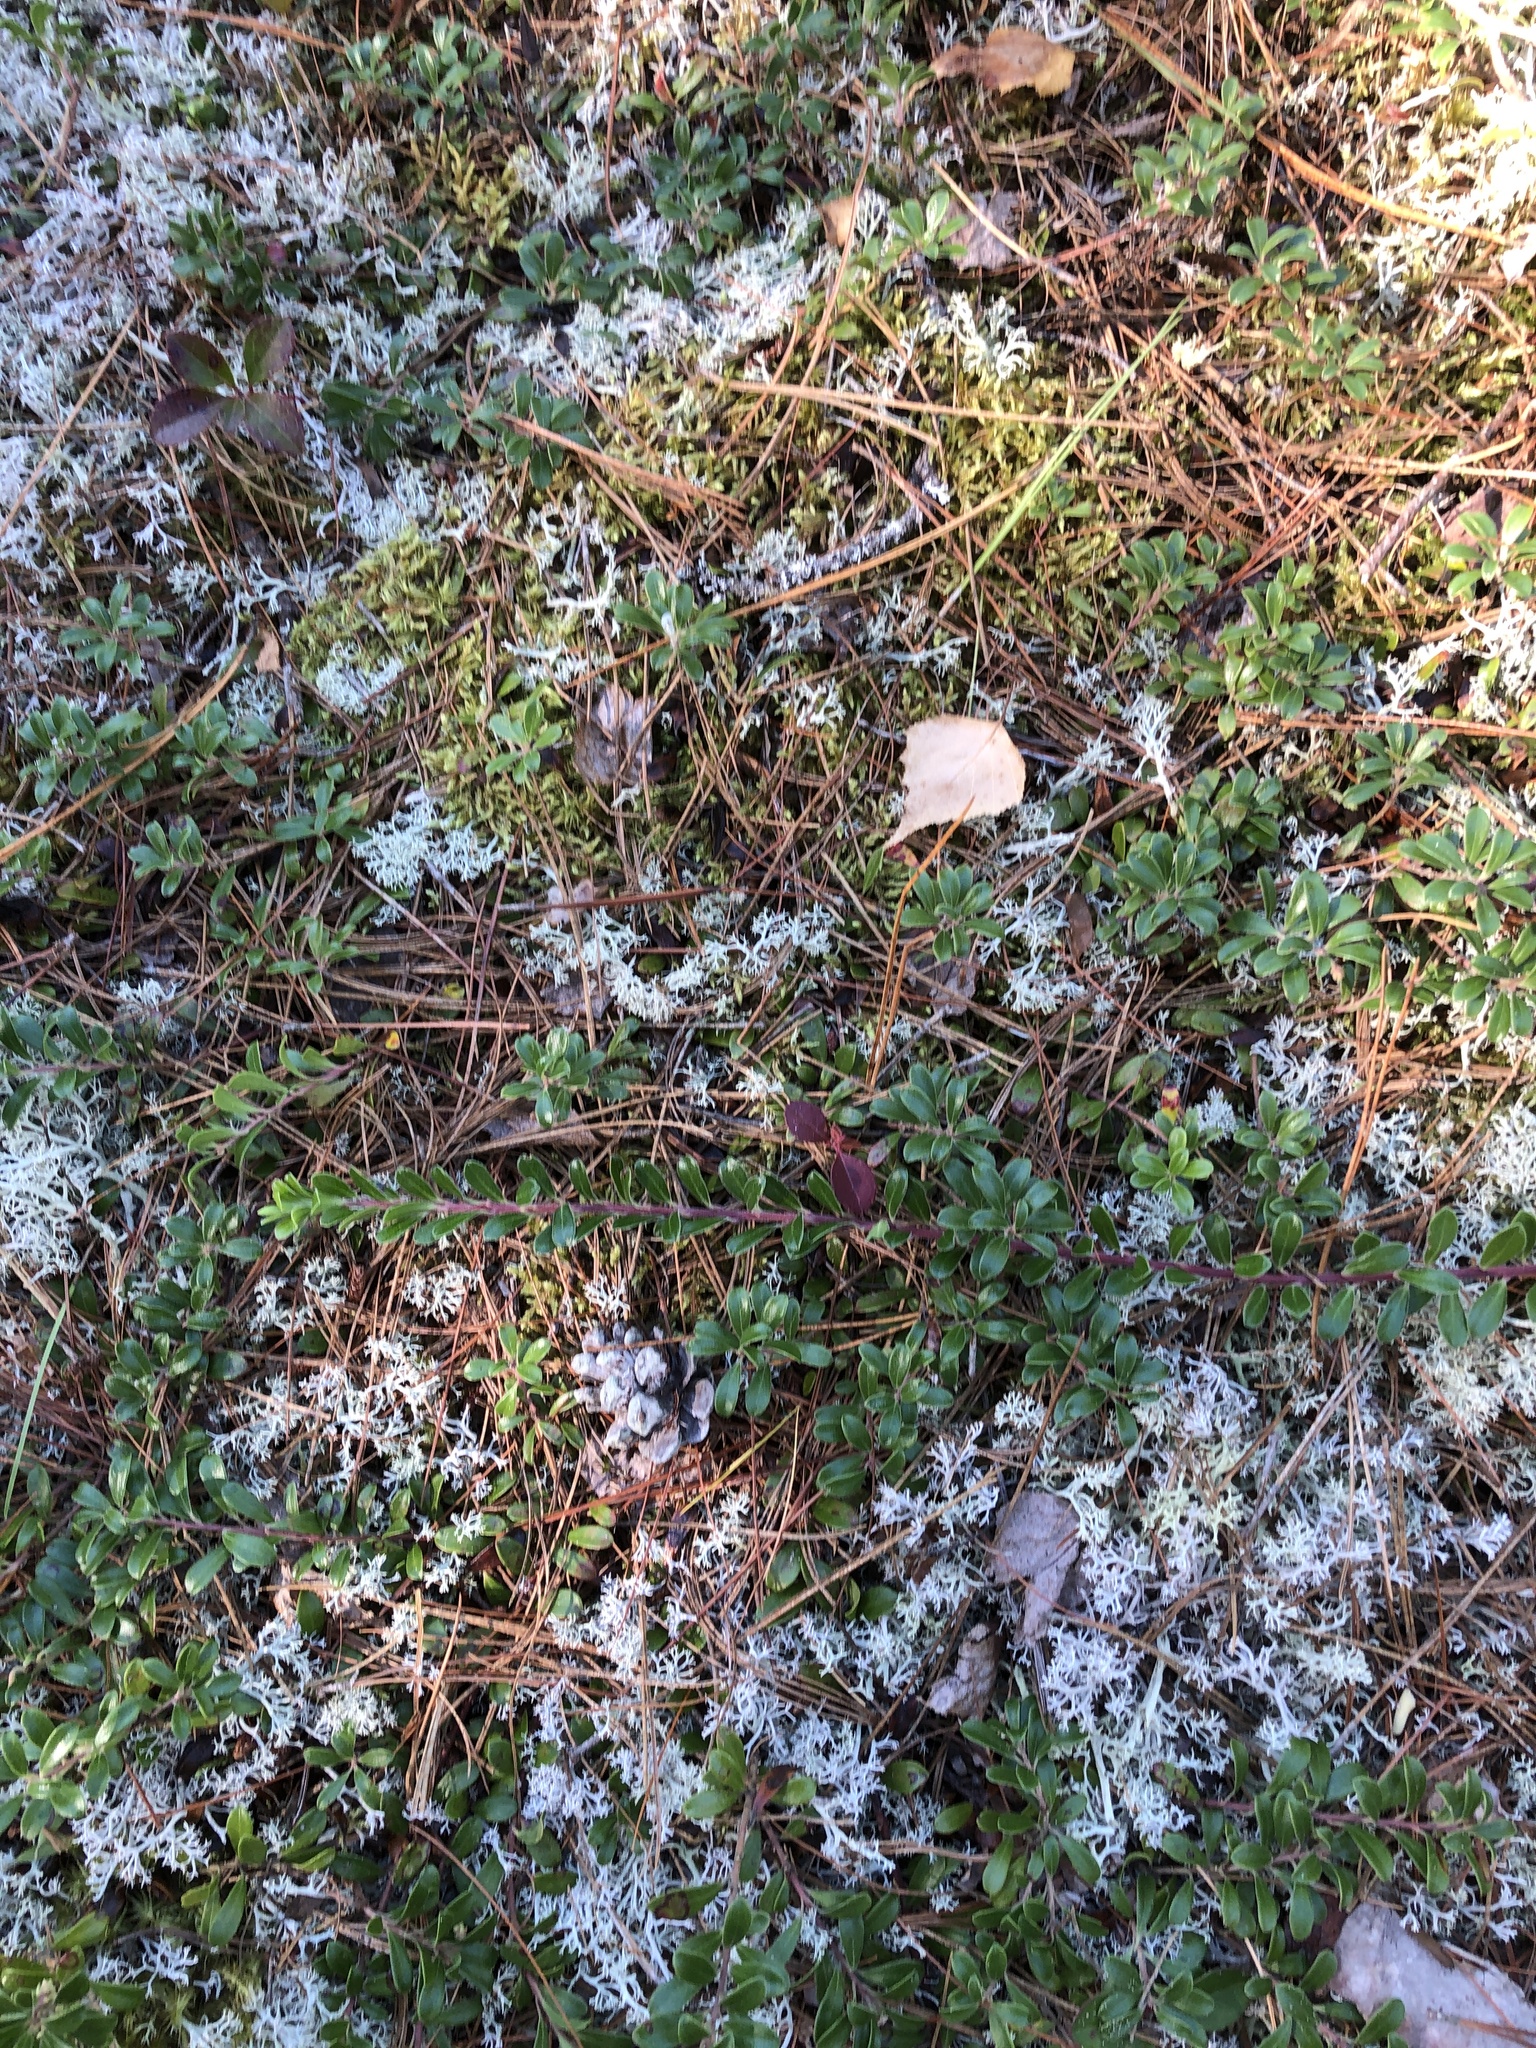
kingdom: Plantae
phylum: Tracheophyta
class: Magnoliopsida
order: Ericales
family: Ericaceae
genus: Arctostaphylos
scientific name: Arctostaphylos uva-ursi
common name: Bearberry
